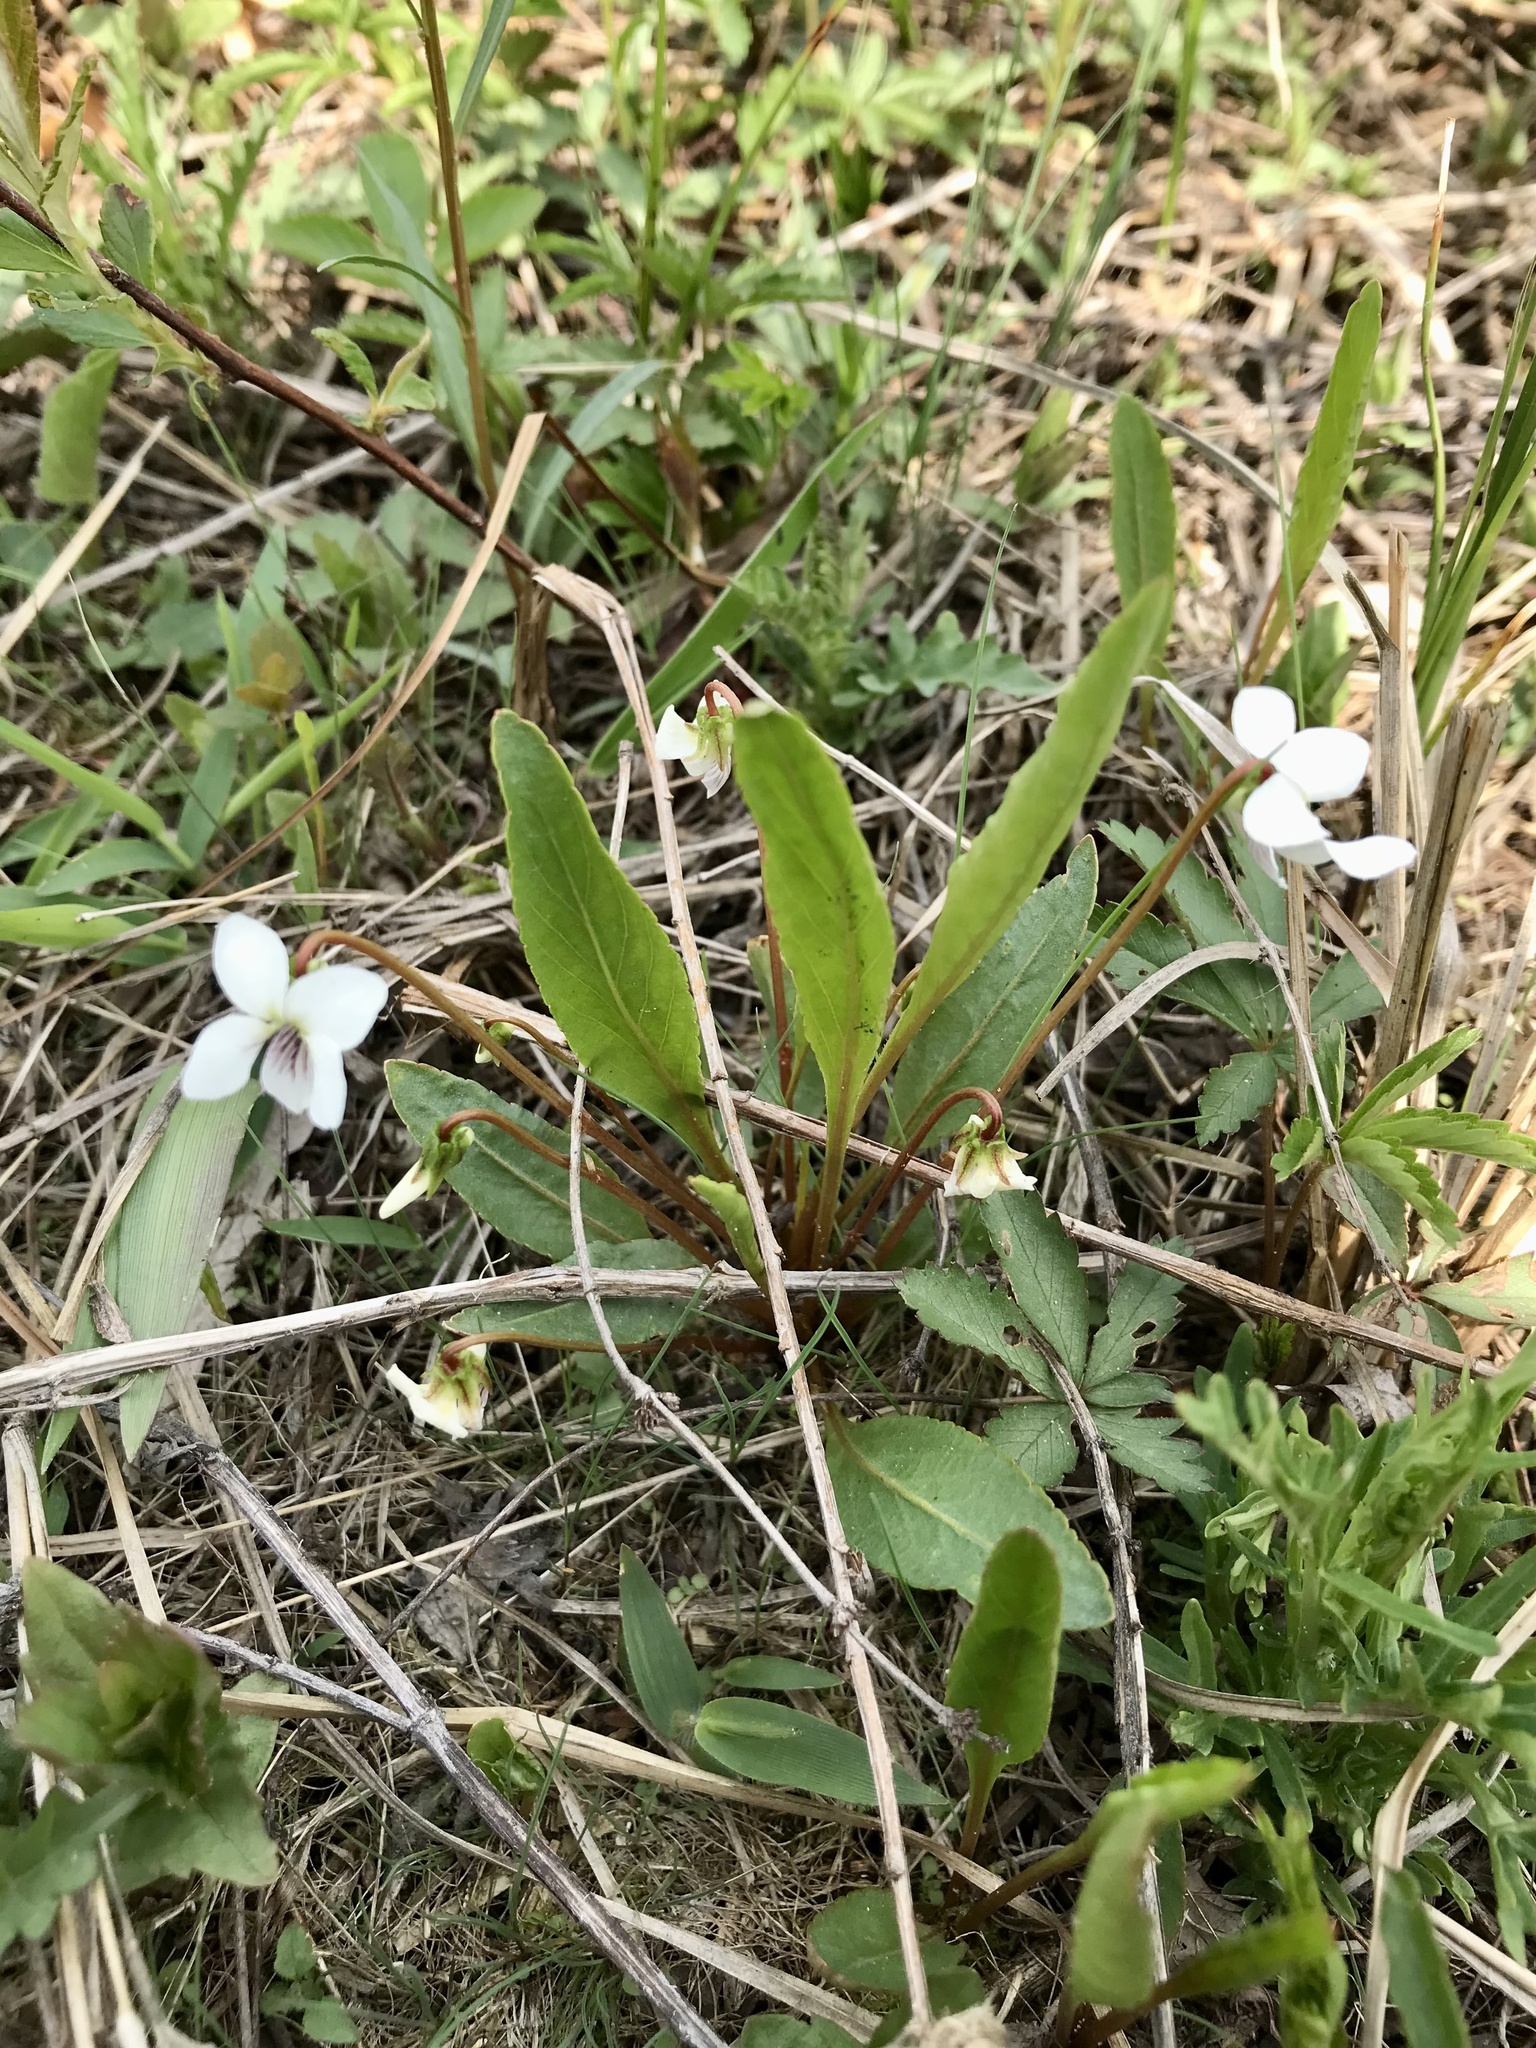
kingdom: Plantae
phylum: Tracheophyta
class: Magnoliopsida
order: Malpighiales
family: Violaceae
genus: Viola
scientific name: Viola lanceolata
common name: Bog white violet
